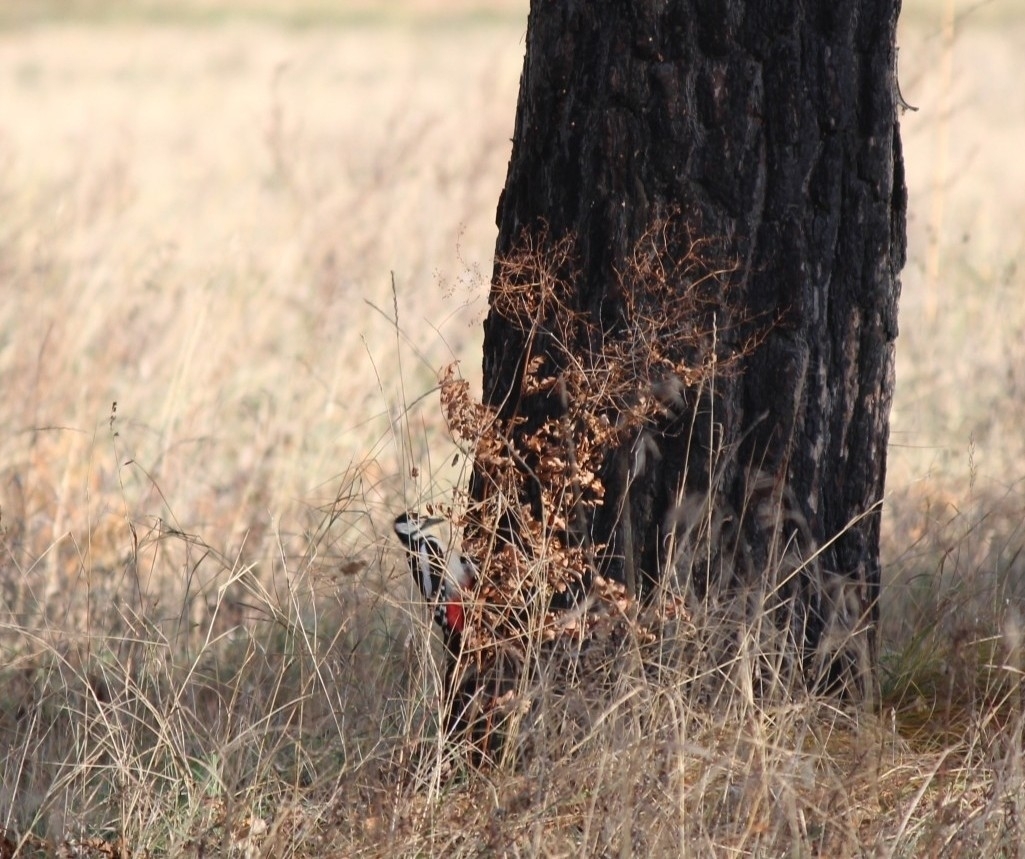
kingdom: Animalia
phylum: Chordata
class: Aves
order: Piciformes
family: Picidae
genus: Dendrocopos
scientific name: Dendrocopos major
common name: Great spotted woodpecker
